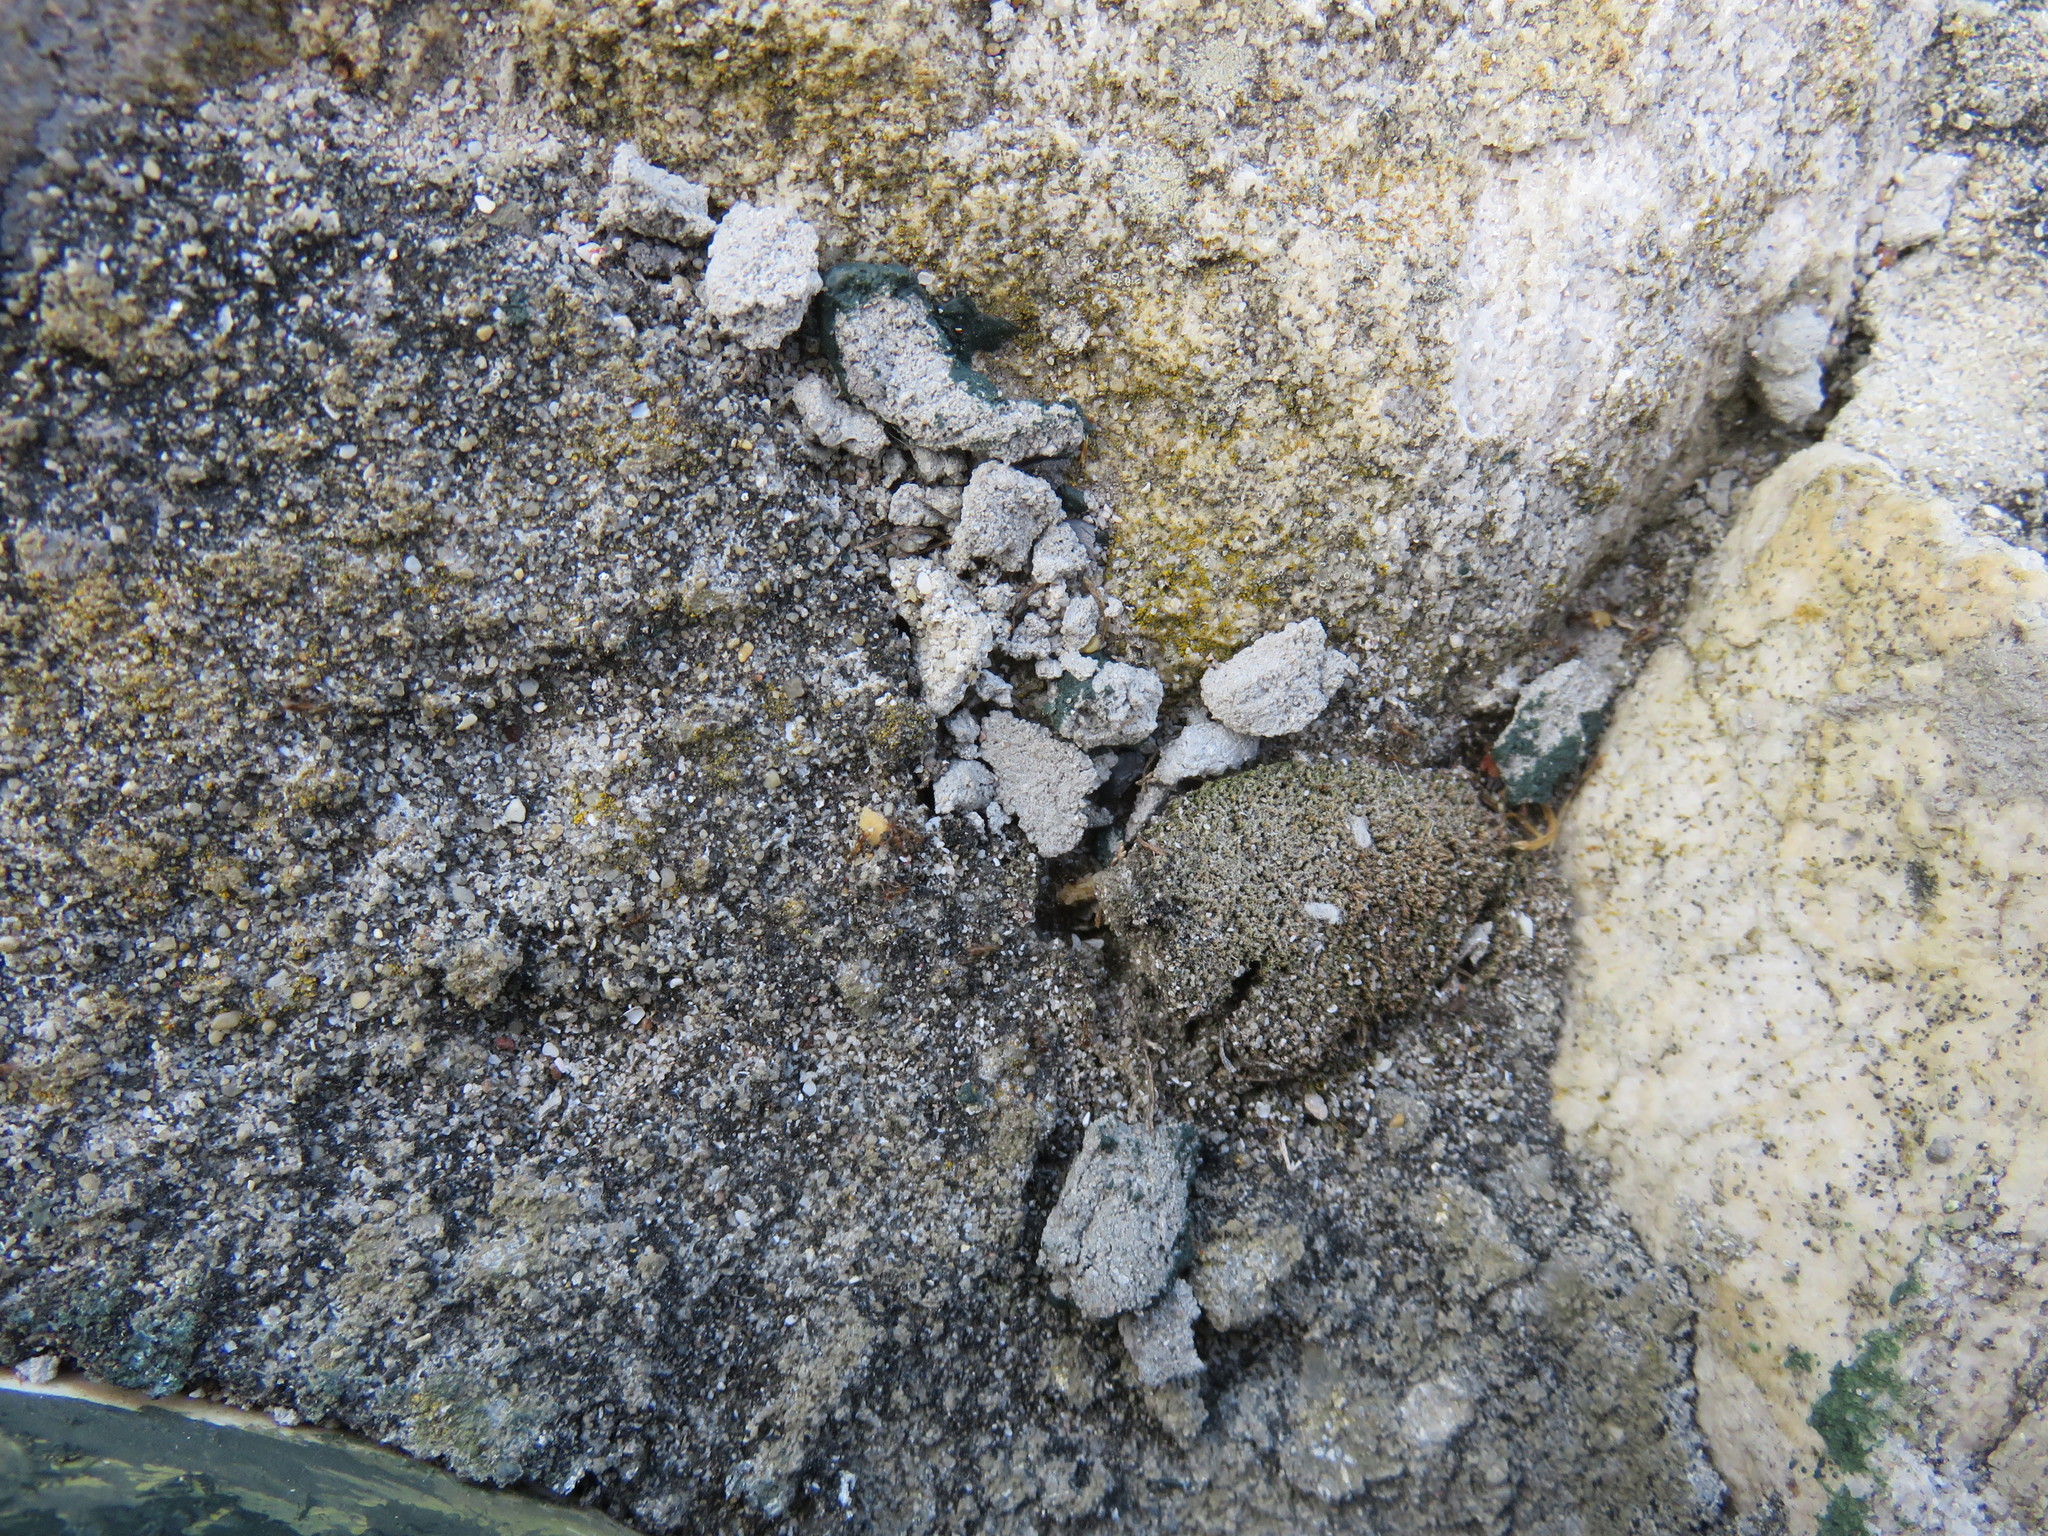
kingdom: Animalia
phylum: Arthropoda
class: Insecta
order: Hymenoptera
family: Formicidae
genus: Pheidole
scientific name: Pheidole megacephala
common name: Bigheaded ant
